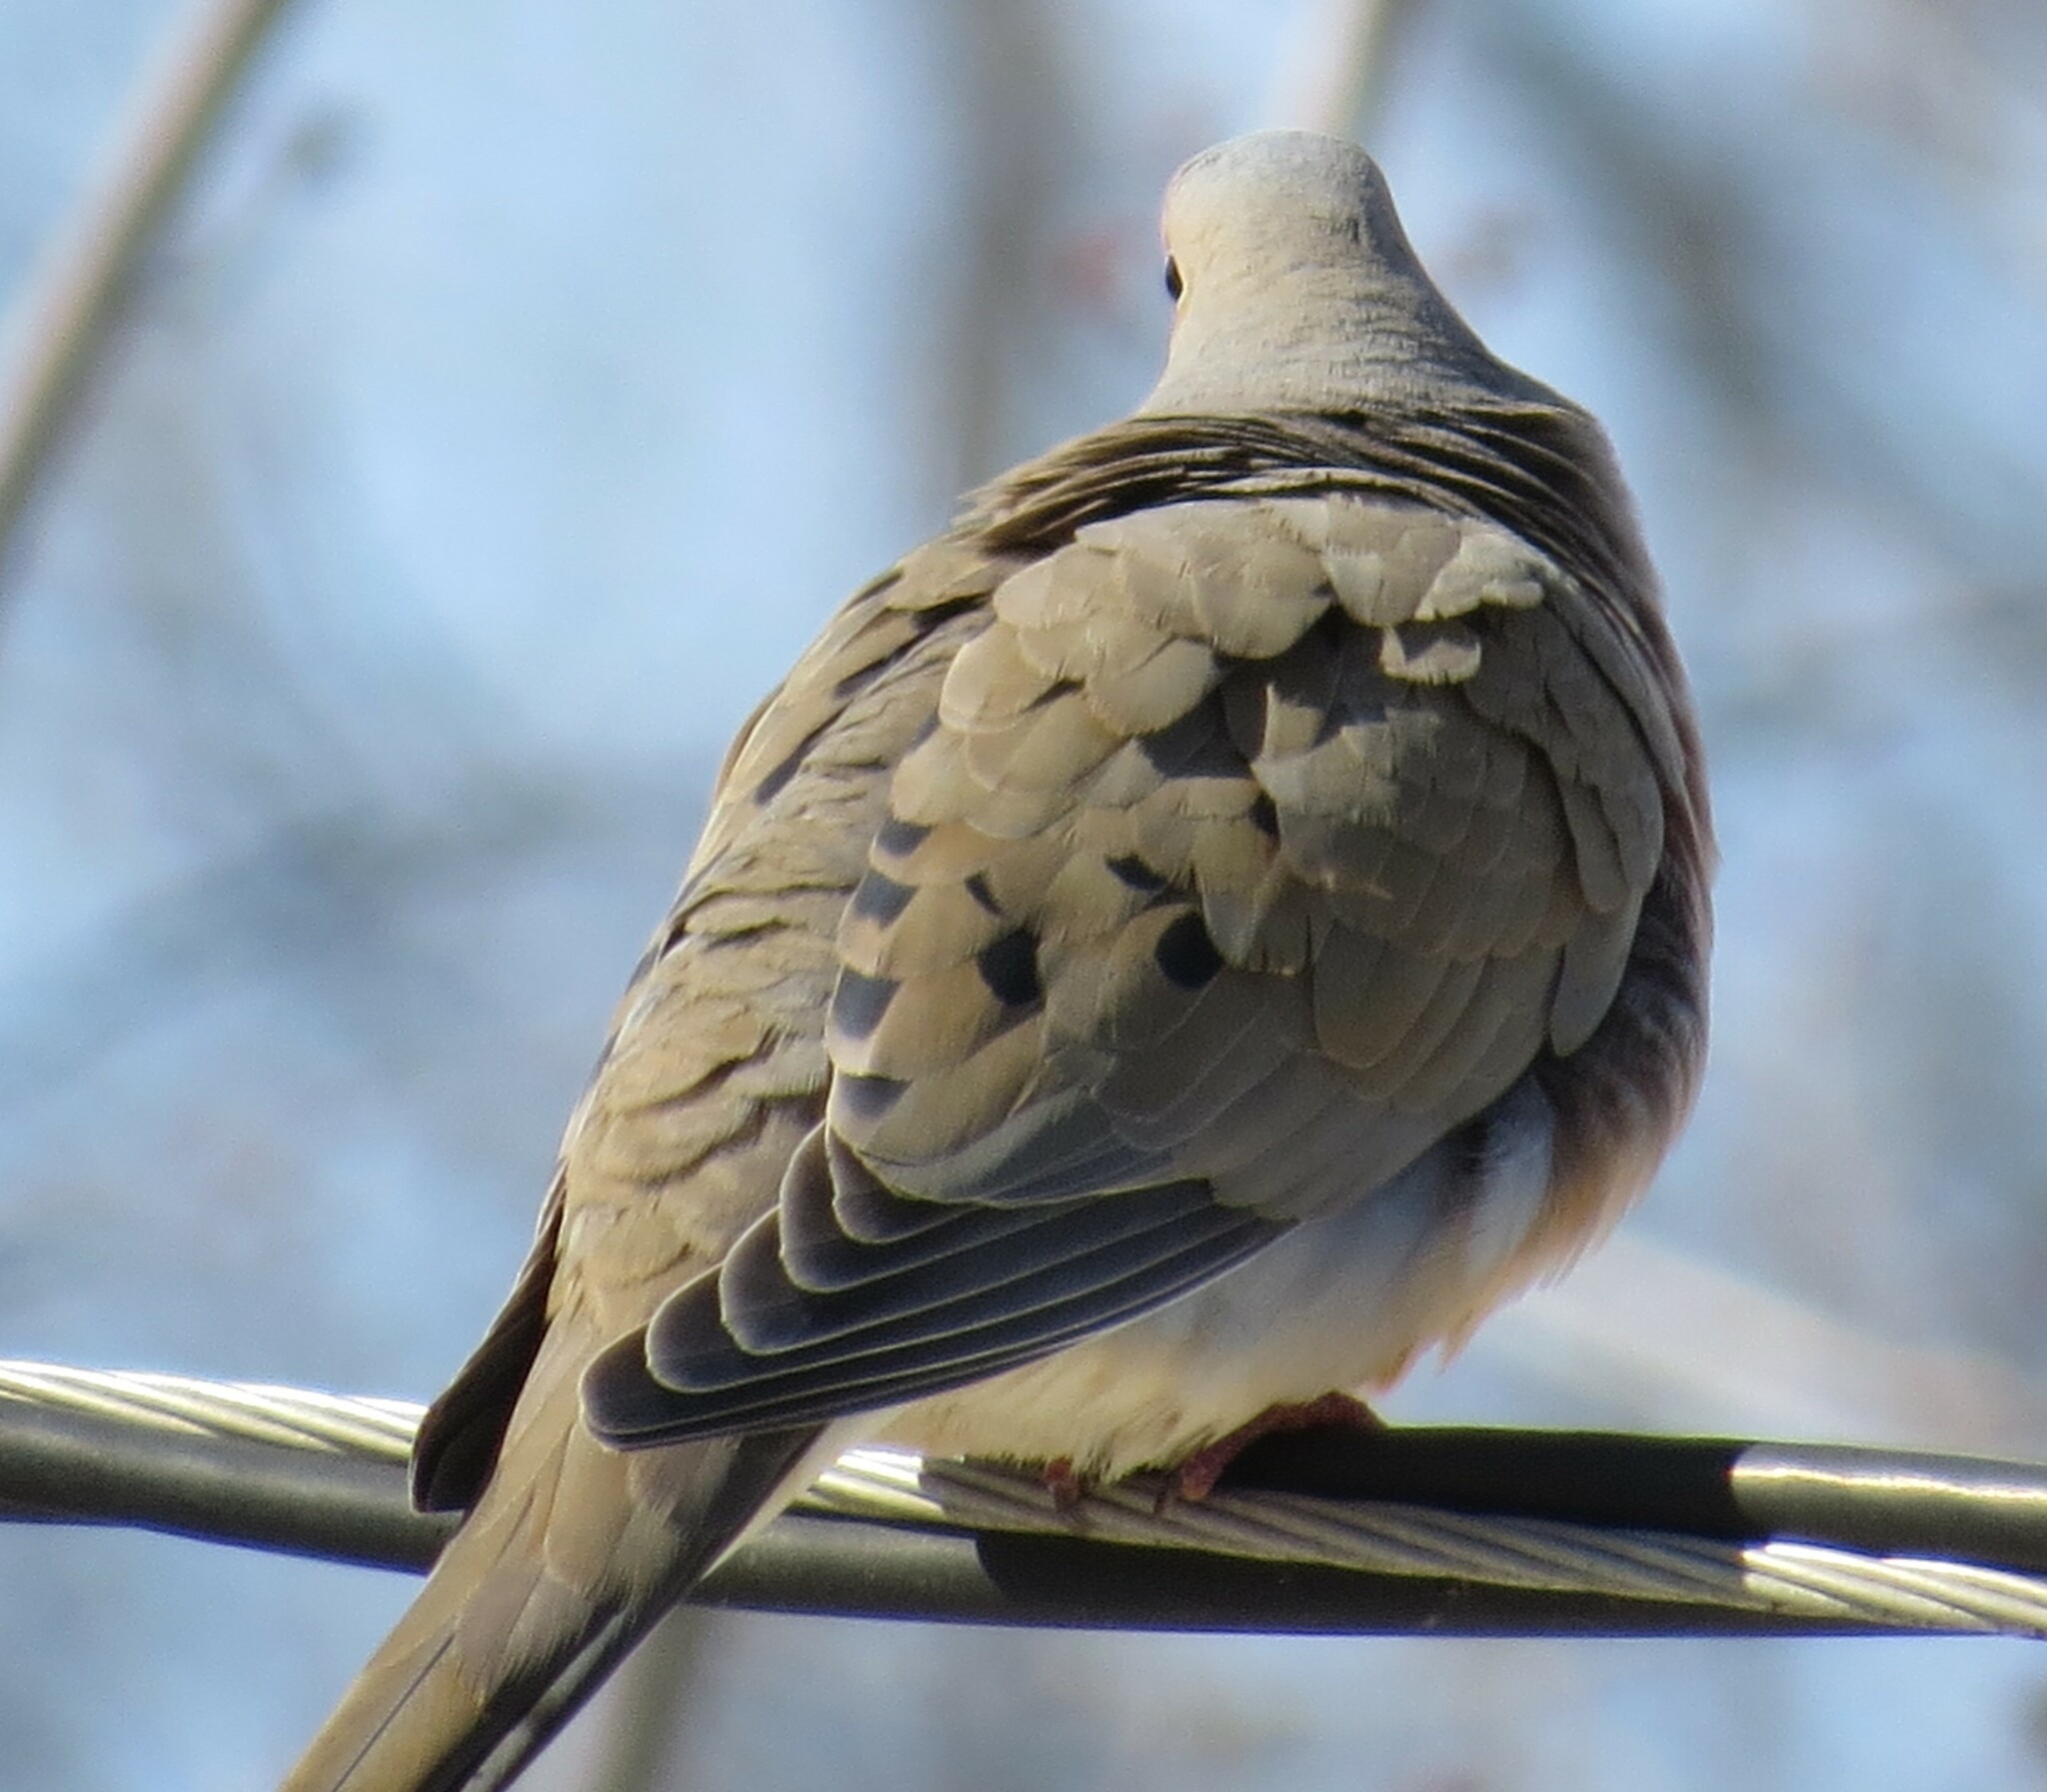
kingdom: Animalia
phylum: Chordata
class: Aves
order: Columbiformes
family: Columbidae
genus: Zenaida
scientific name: Zenaida macroura
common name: Mourning dove
